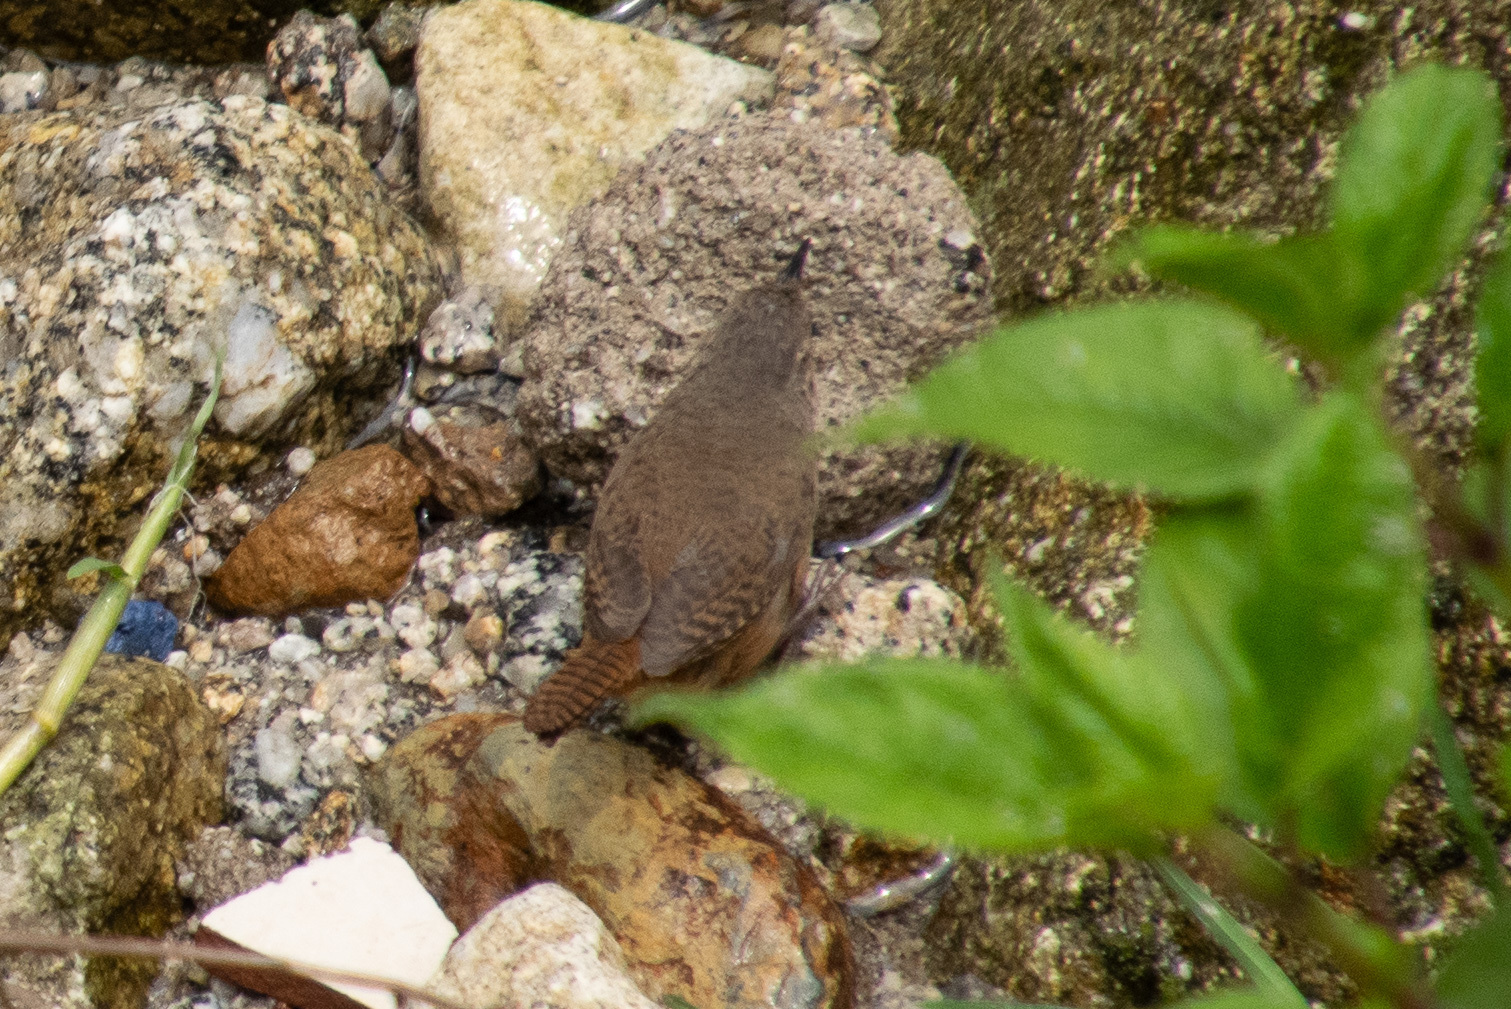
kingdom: Animalia
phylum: Chordata
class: Aves
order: Passeriformes
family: Troglodytidae
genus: Troglodytes
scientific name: Troglodytes aedon
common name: House wren
